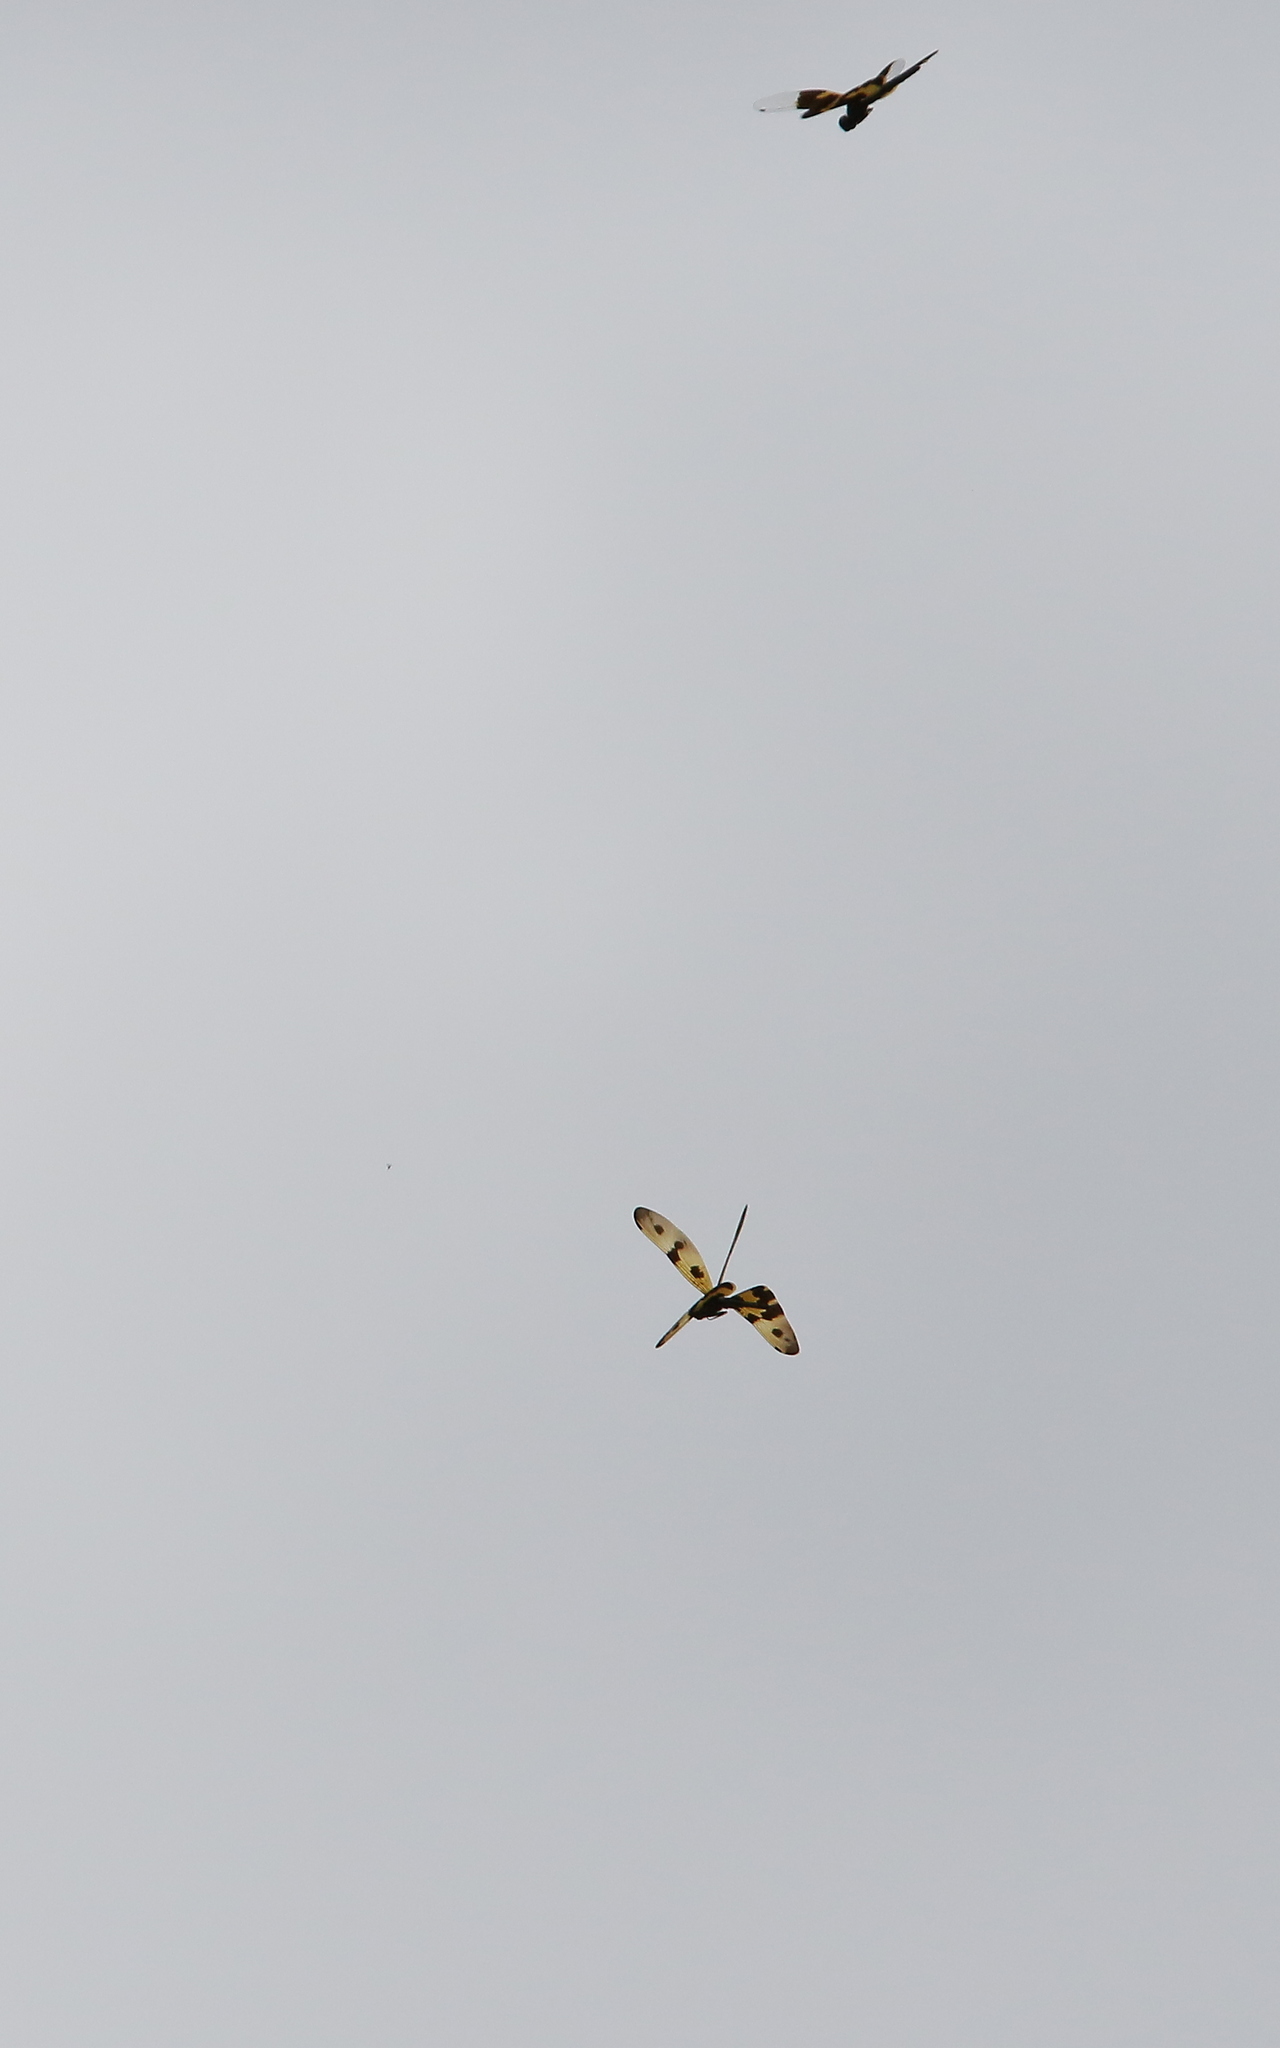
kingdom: Animalia
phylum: Arthropoda
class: Insecta
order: Odonata
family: Libellulidae
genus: Rhyothemis
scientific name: Rhyothemis variegata
